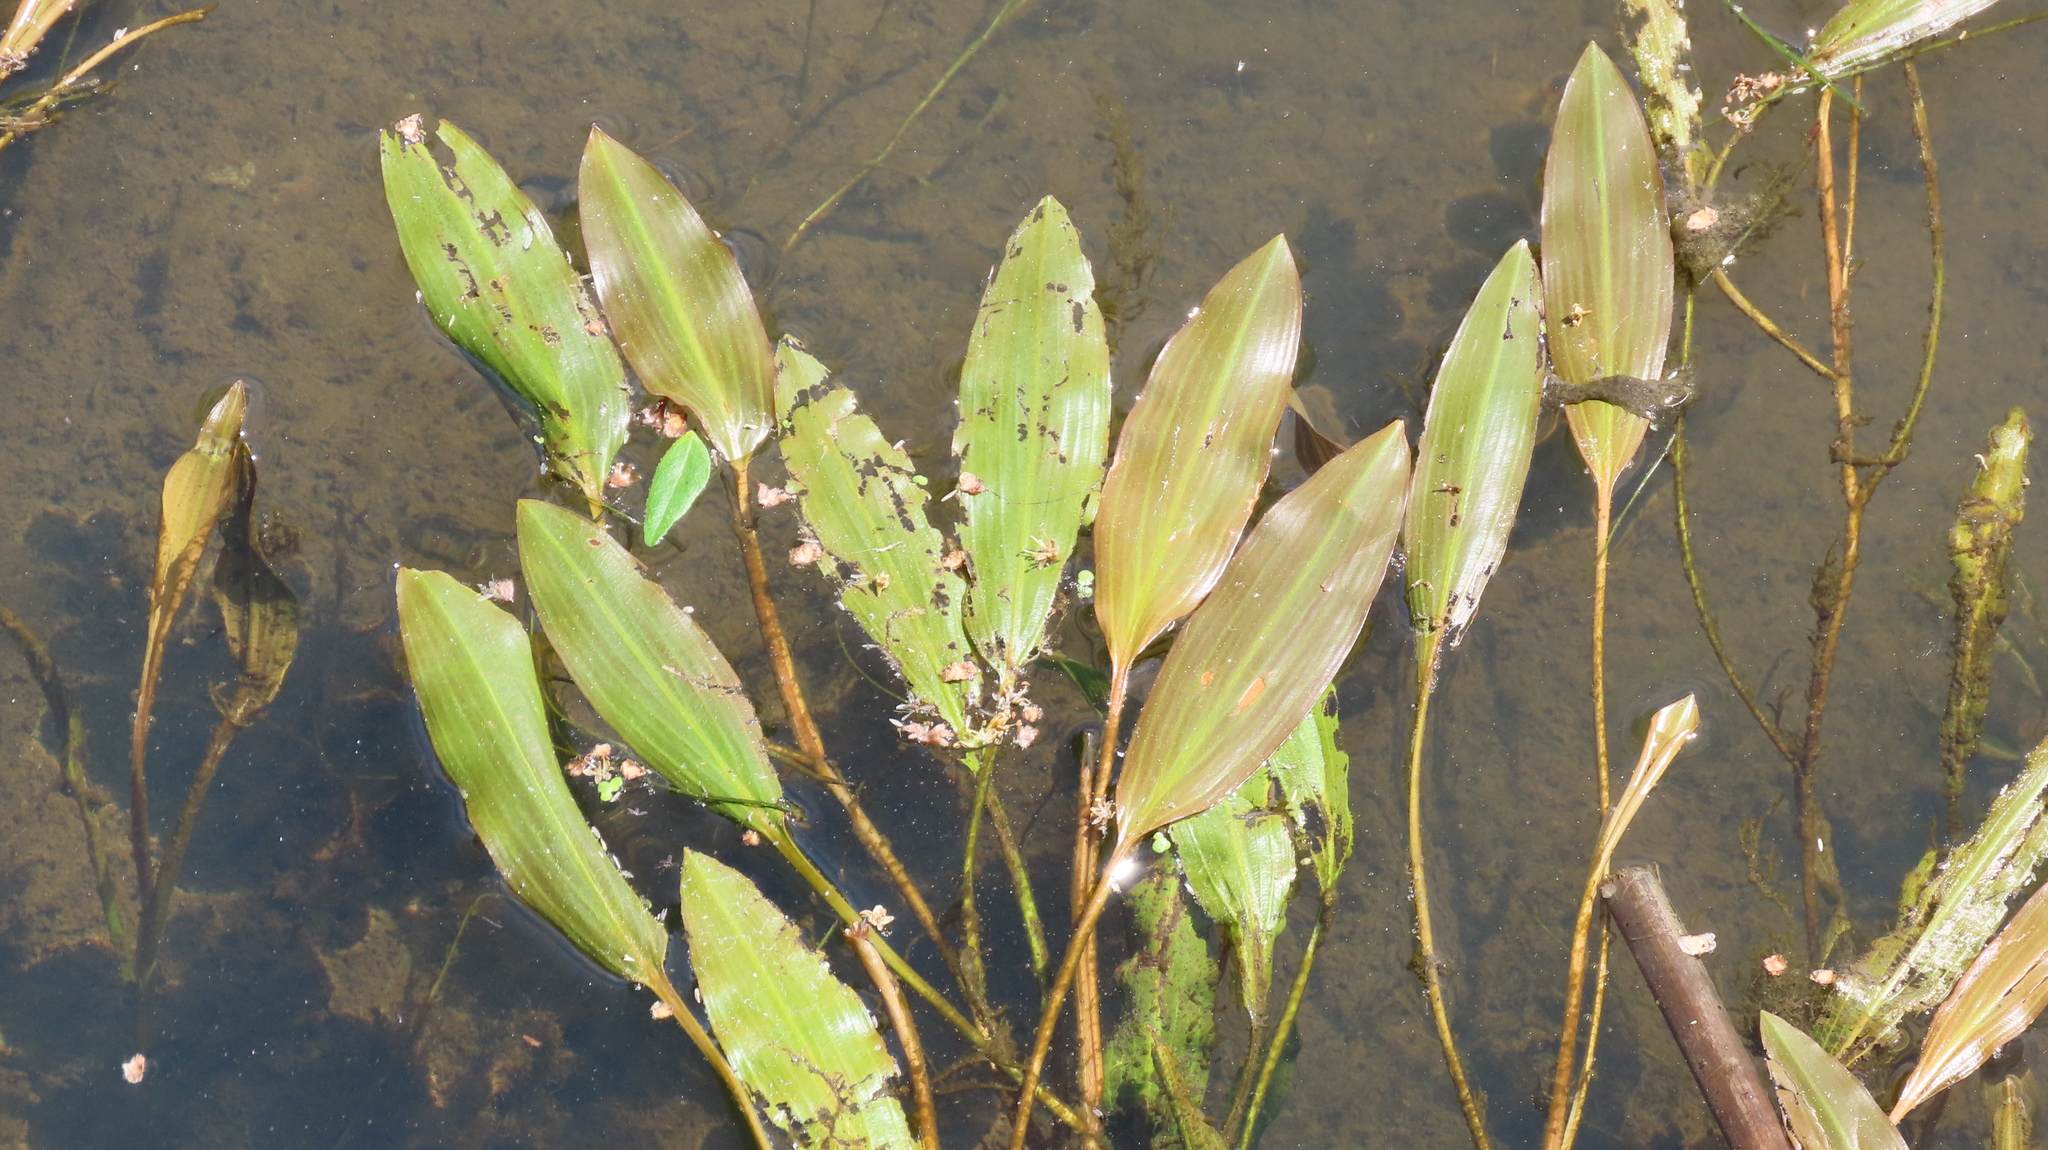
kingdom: Plantae
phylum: Tracheophyta
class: Liliopsida
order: Alismatales
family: Potamogetonaceae
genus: Potamogeton
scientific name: Potamogeton nodosus
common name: Loddon pondweed
